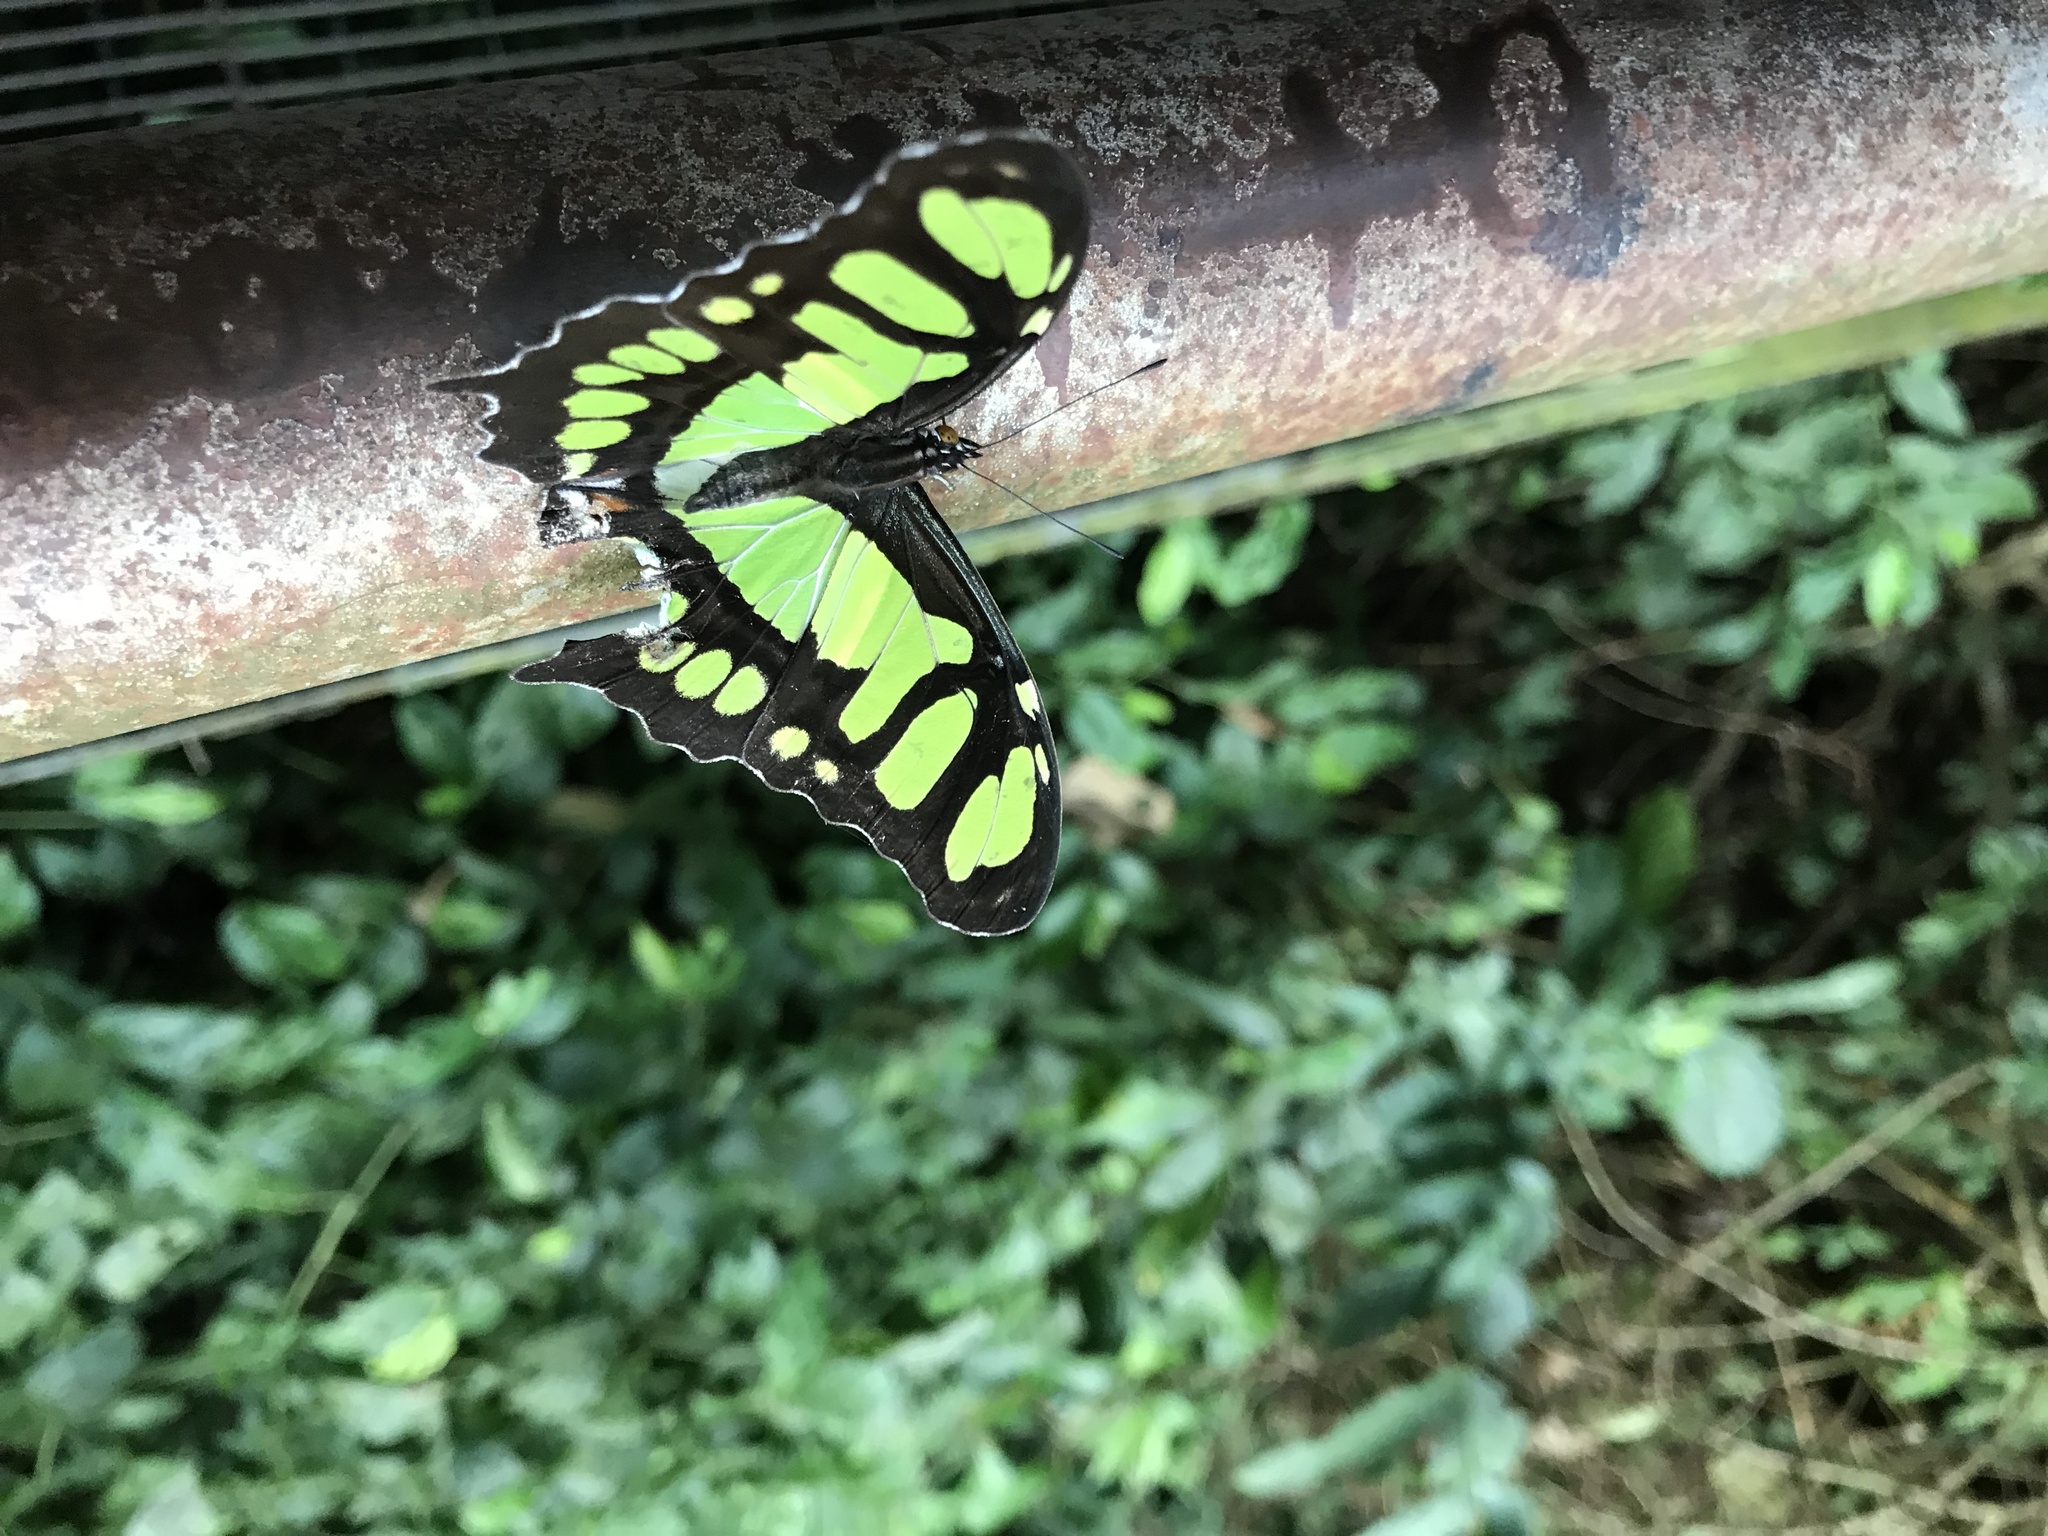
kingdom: Animalia
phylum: Arthropoda
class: Insecta
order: Lepidoptera
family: Nymphalidae
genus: Siproeta
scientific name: Siproeta stelenes
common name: Malachite
